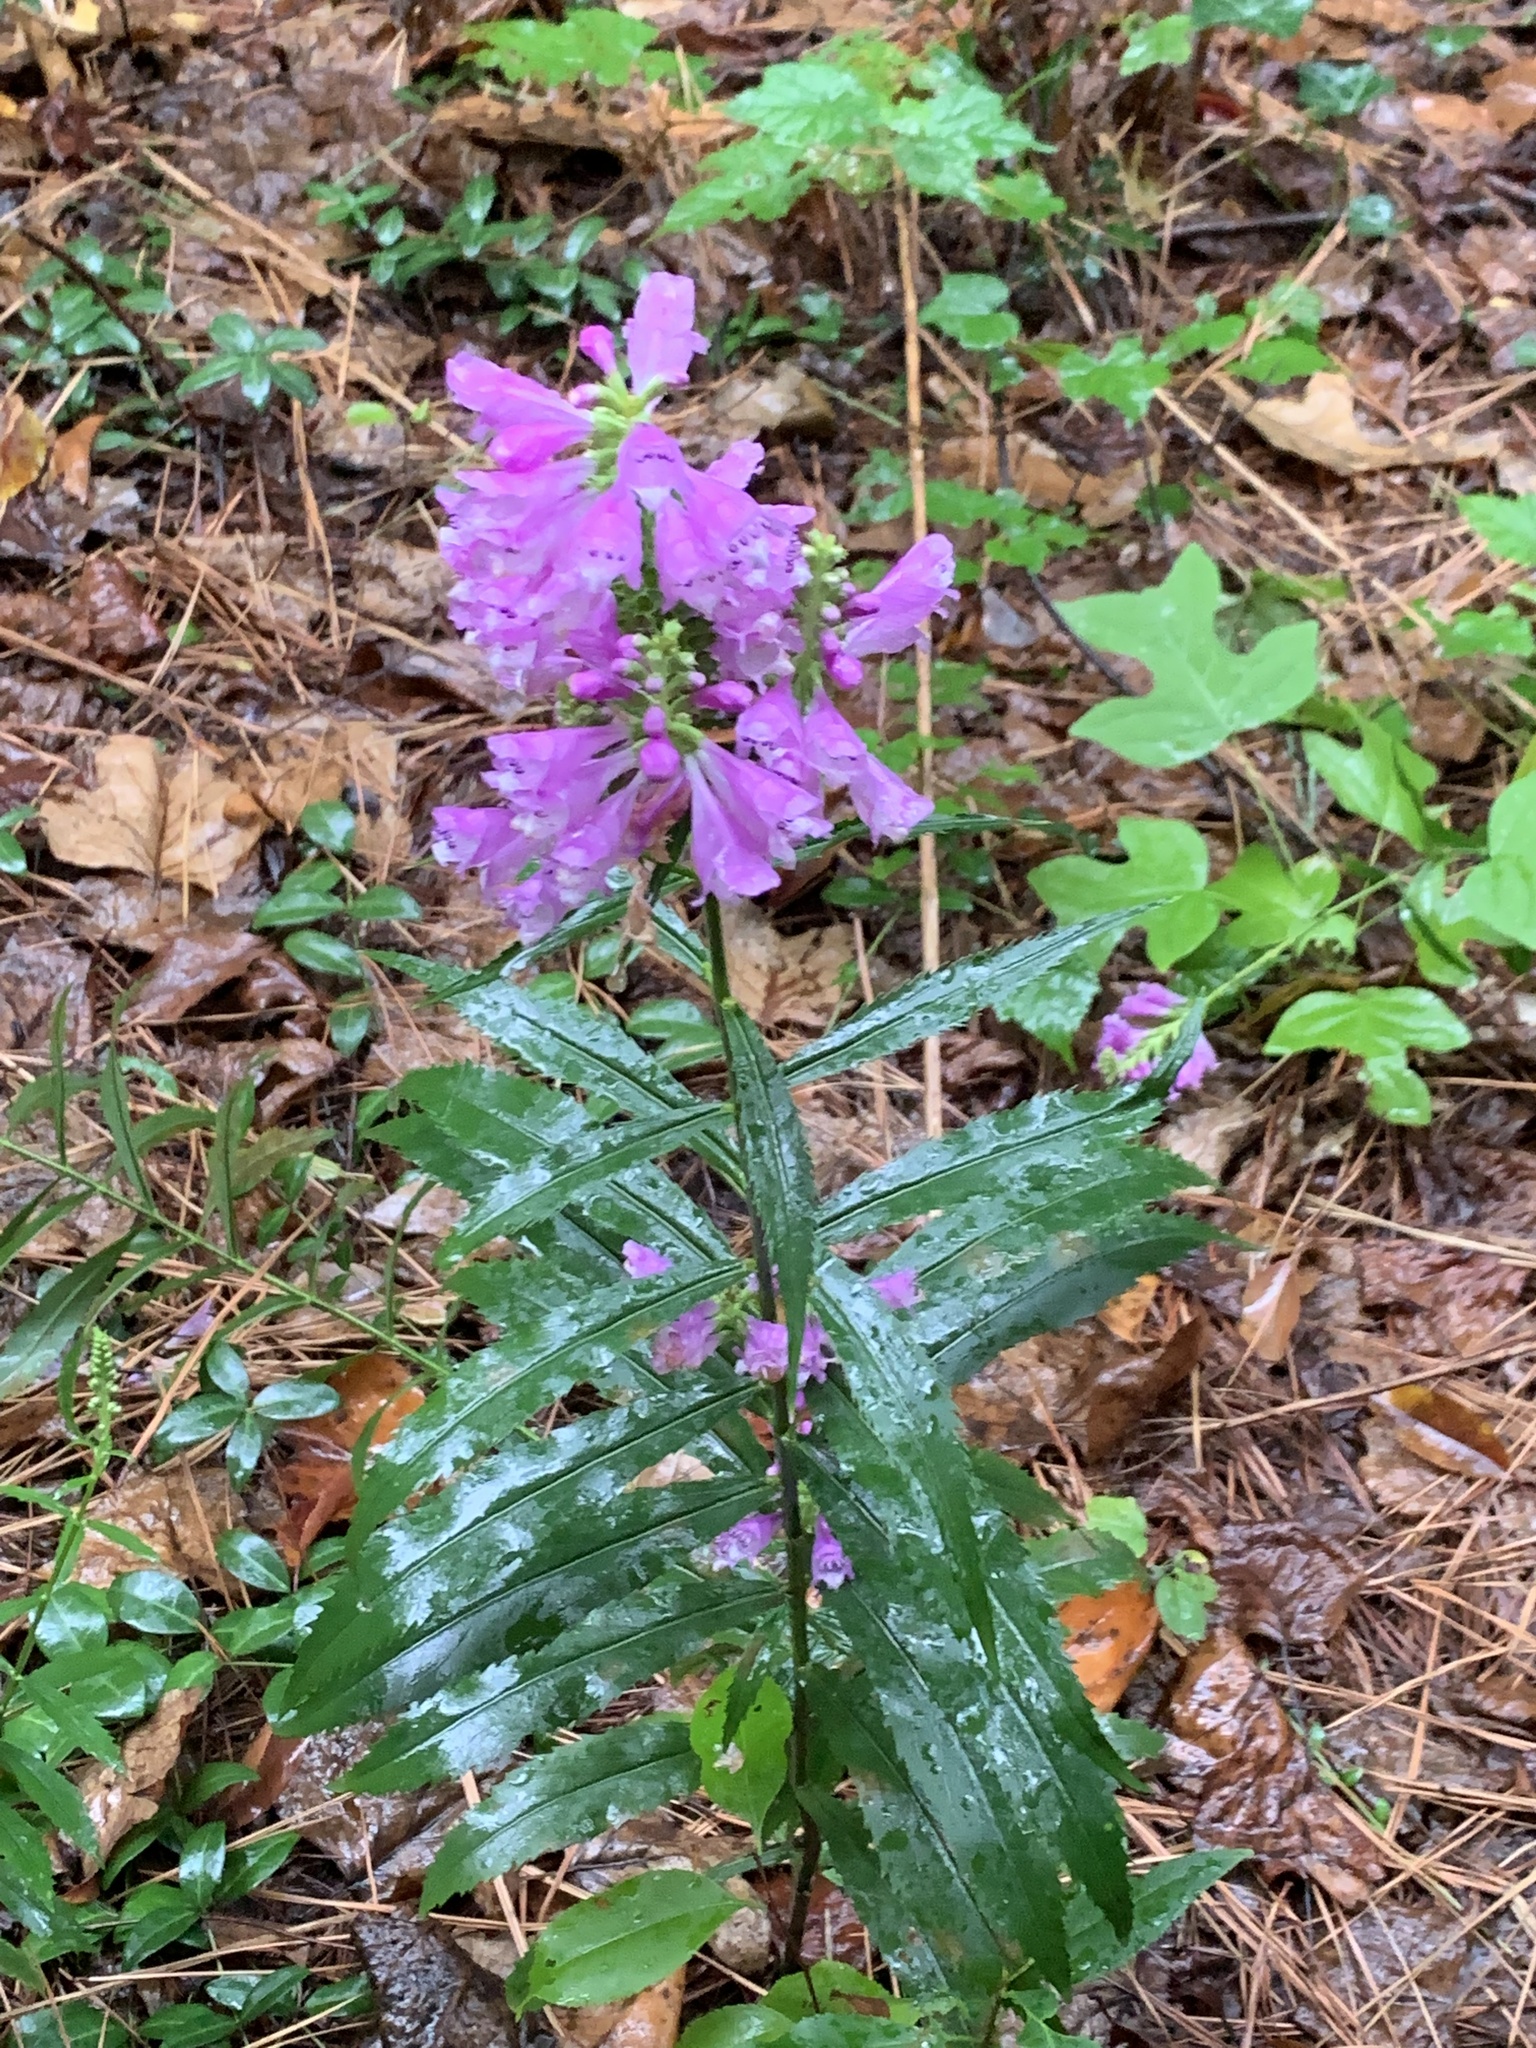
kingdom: Plantae
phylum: Tracheophyta
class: Magnoliopsida
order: Lamiales
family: Lamiaceae
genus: Physostegia
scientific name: Physostegia virginiana
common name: Obedient-plant
